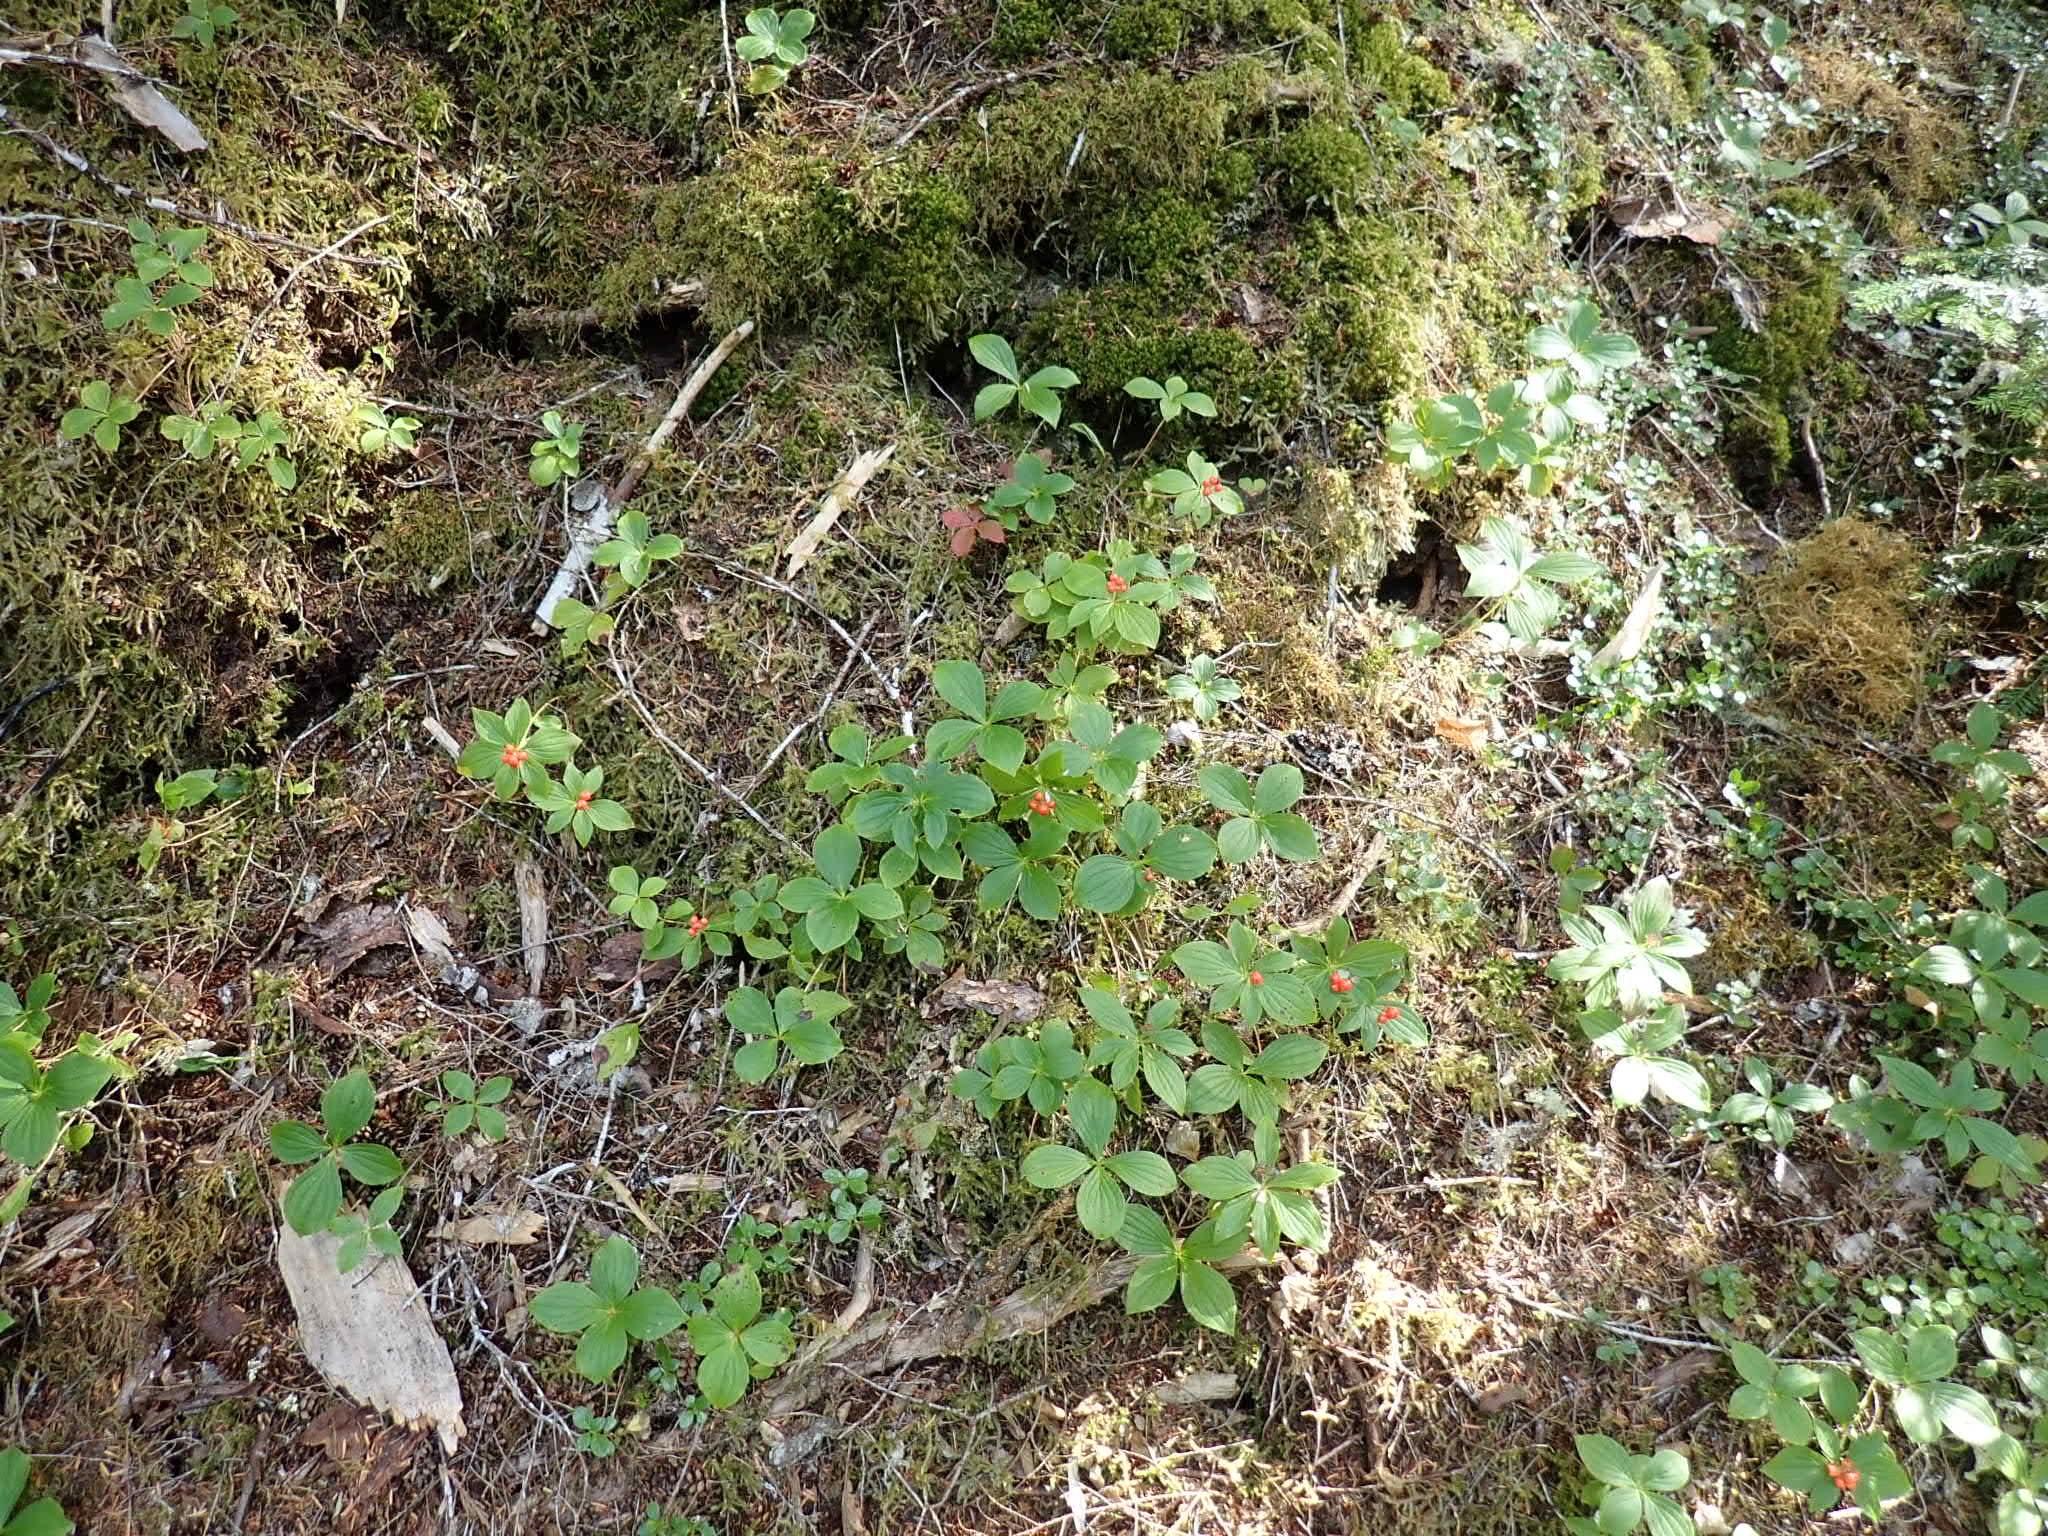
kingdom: Plantae
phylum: Tracheophyta
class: Magnoliopsida
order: Cornales
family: Cornaceae
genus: Cornus
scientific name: Cornus unalaschkensis
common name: Alaska bunchberry
